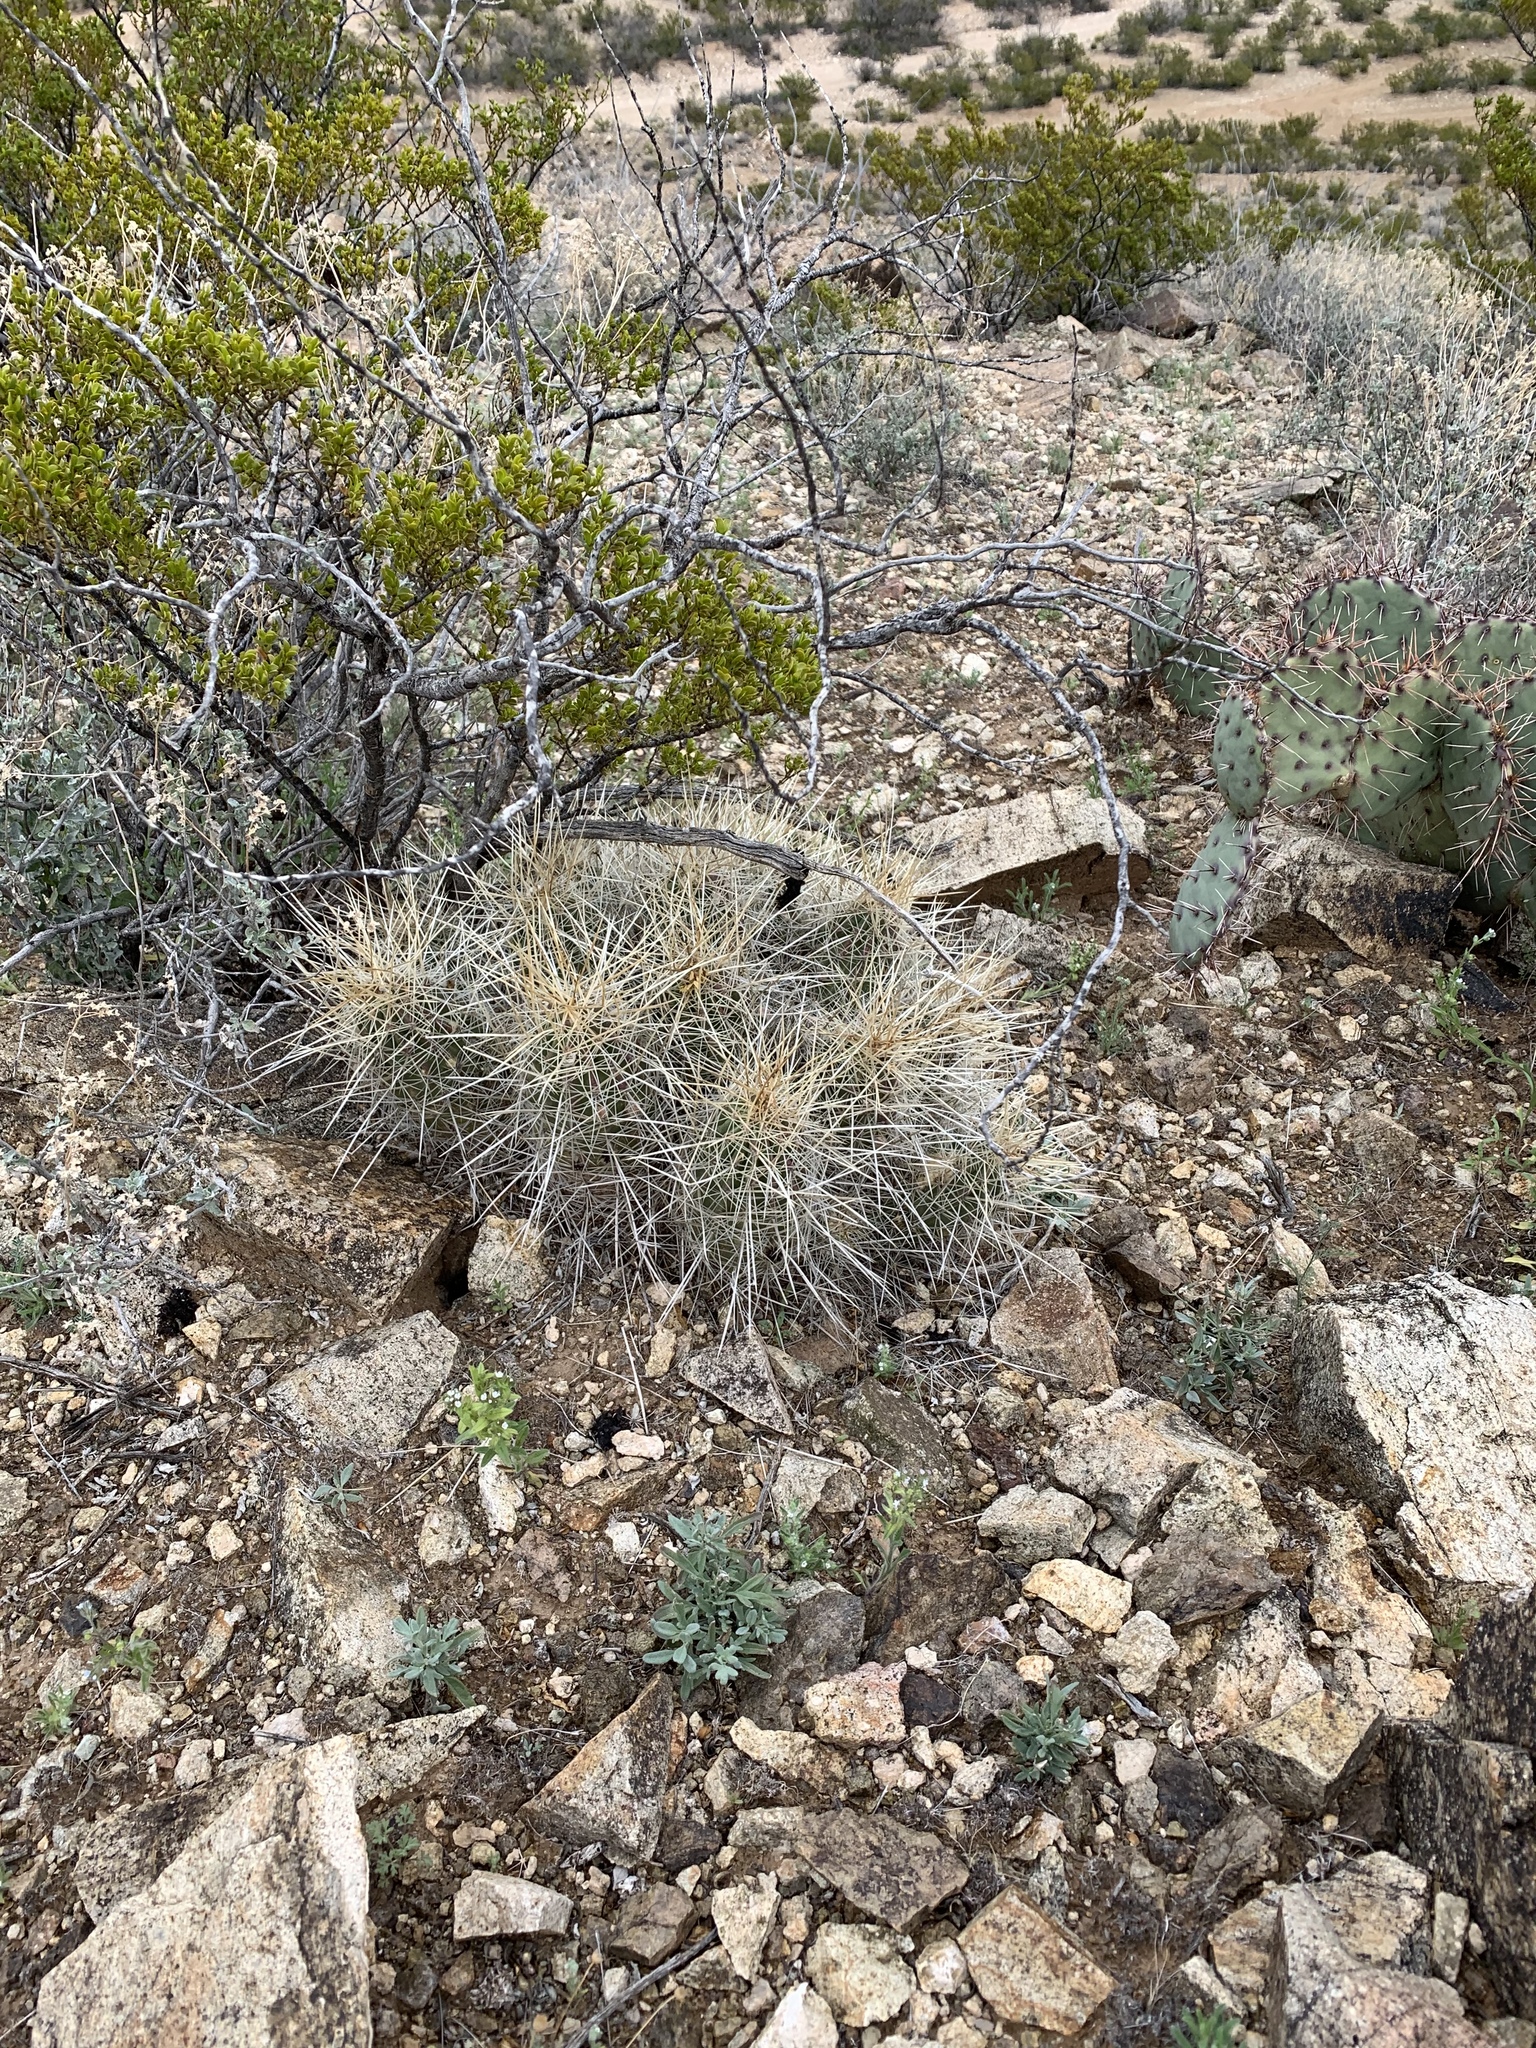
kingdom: Plantae
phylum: Tracheophyta
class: Magnoliopsida
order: Caryophyllales
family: Cactaceae
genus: Echinocereus
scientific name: Echinocereus stramineus
